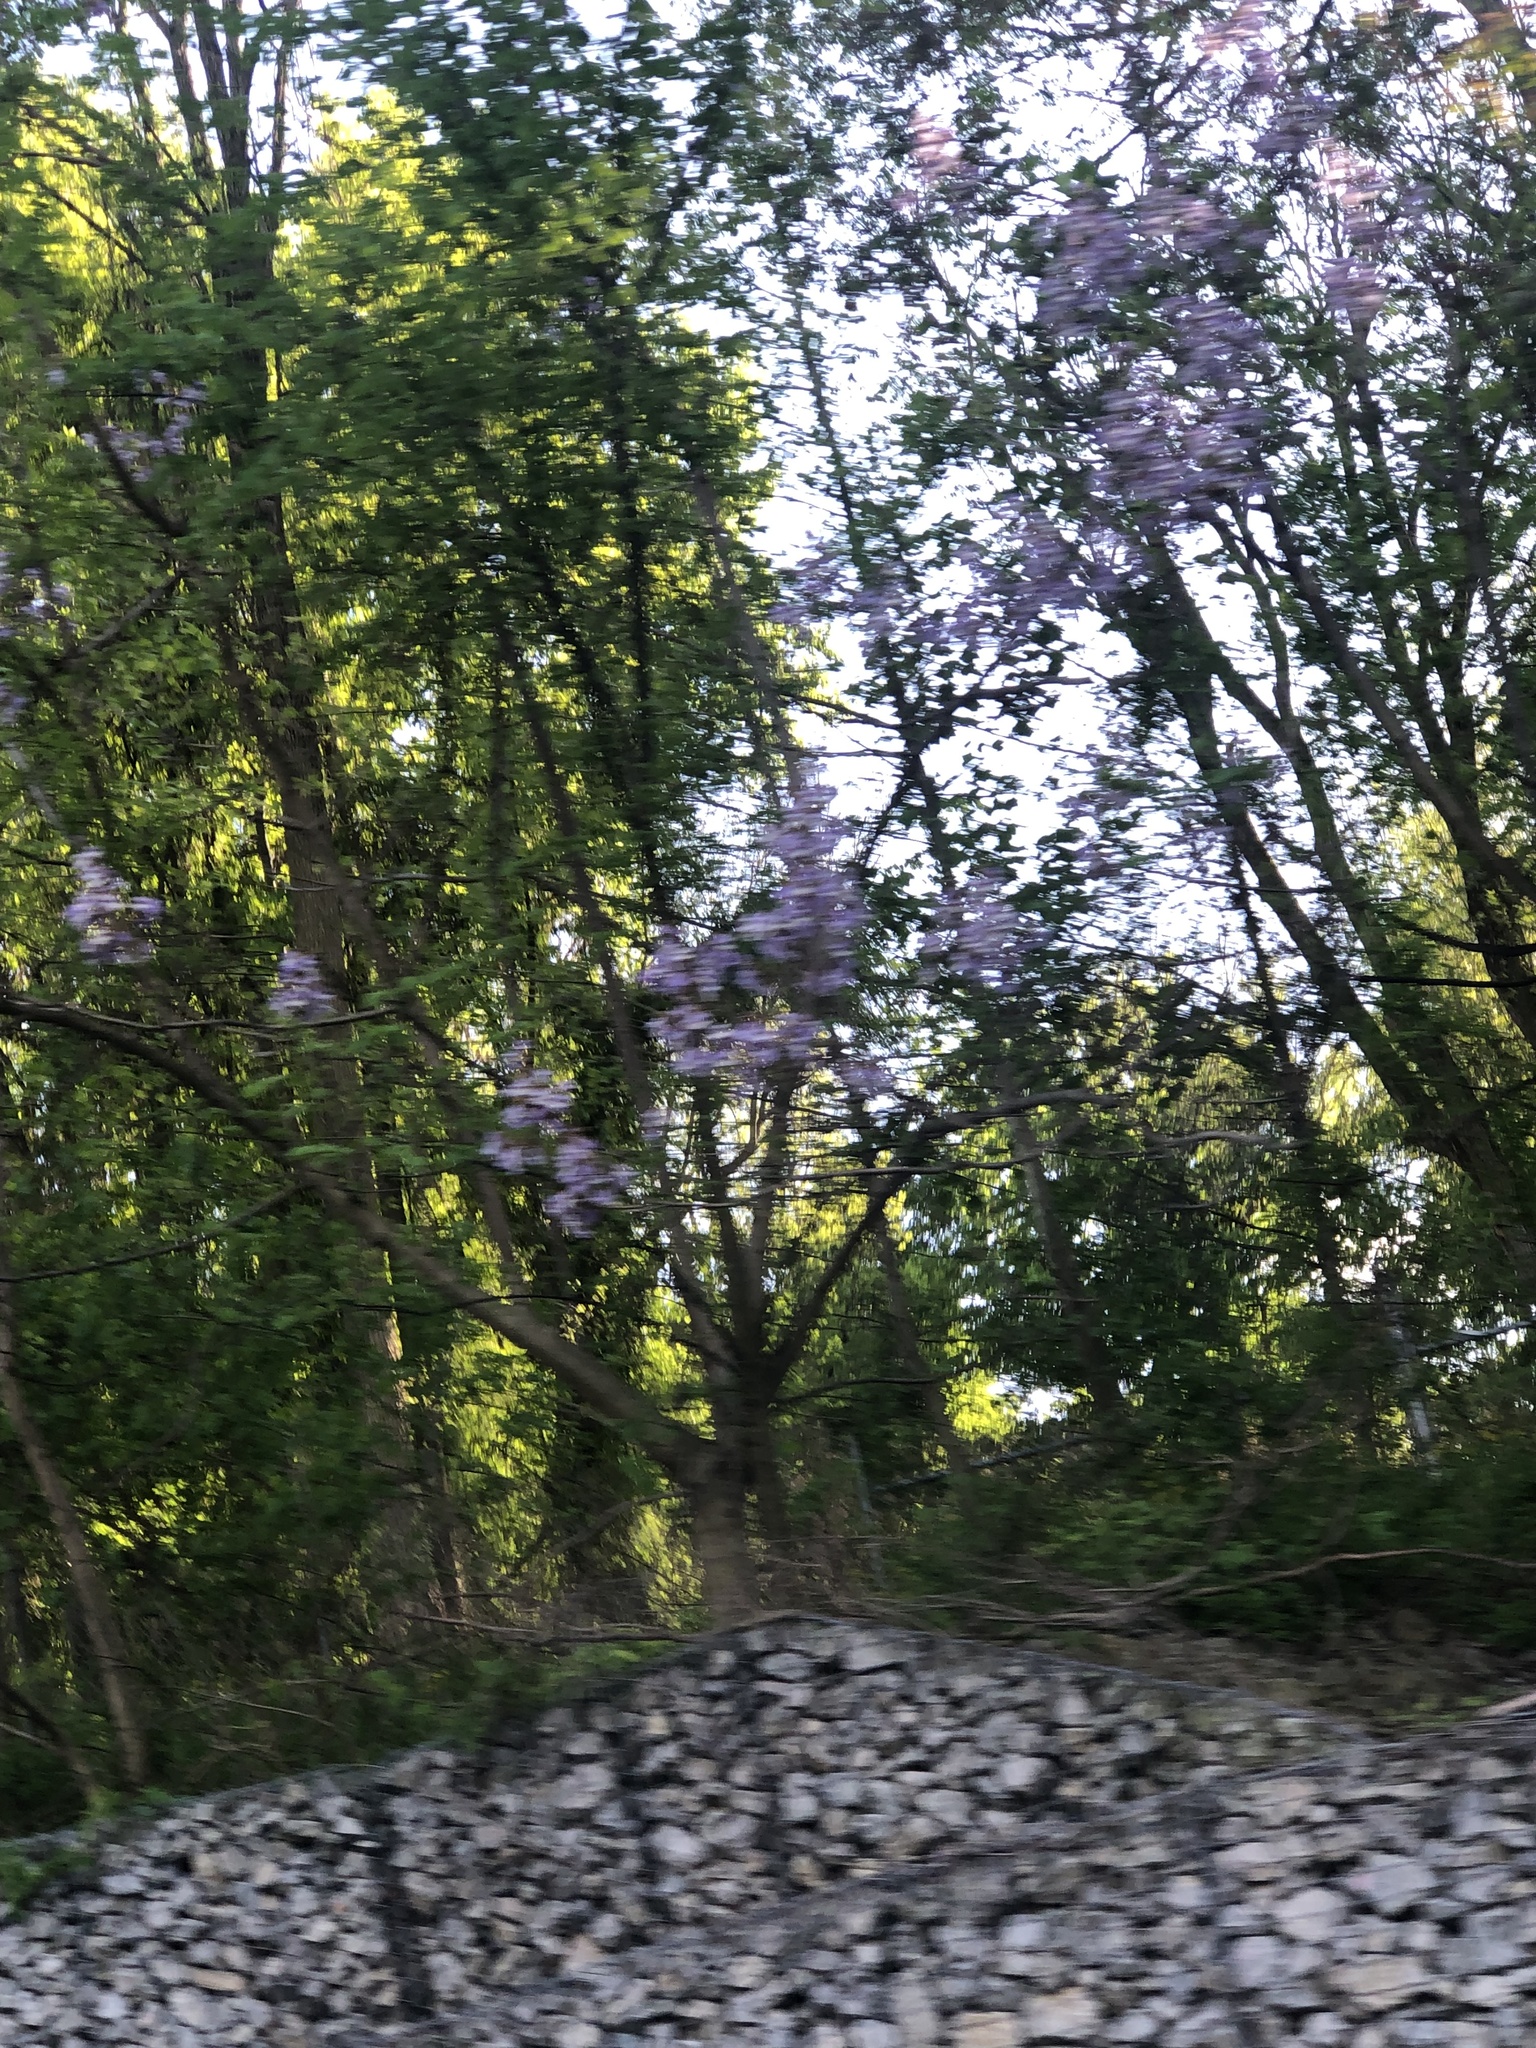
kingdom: Plantae
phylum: Tracheophyta
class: Magnoliopsida
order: Lamiales
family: Paulowniaceae
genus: Paulownia
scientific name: Paulownia tomentosa
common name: Foxglove-tree
